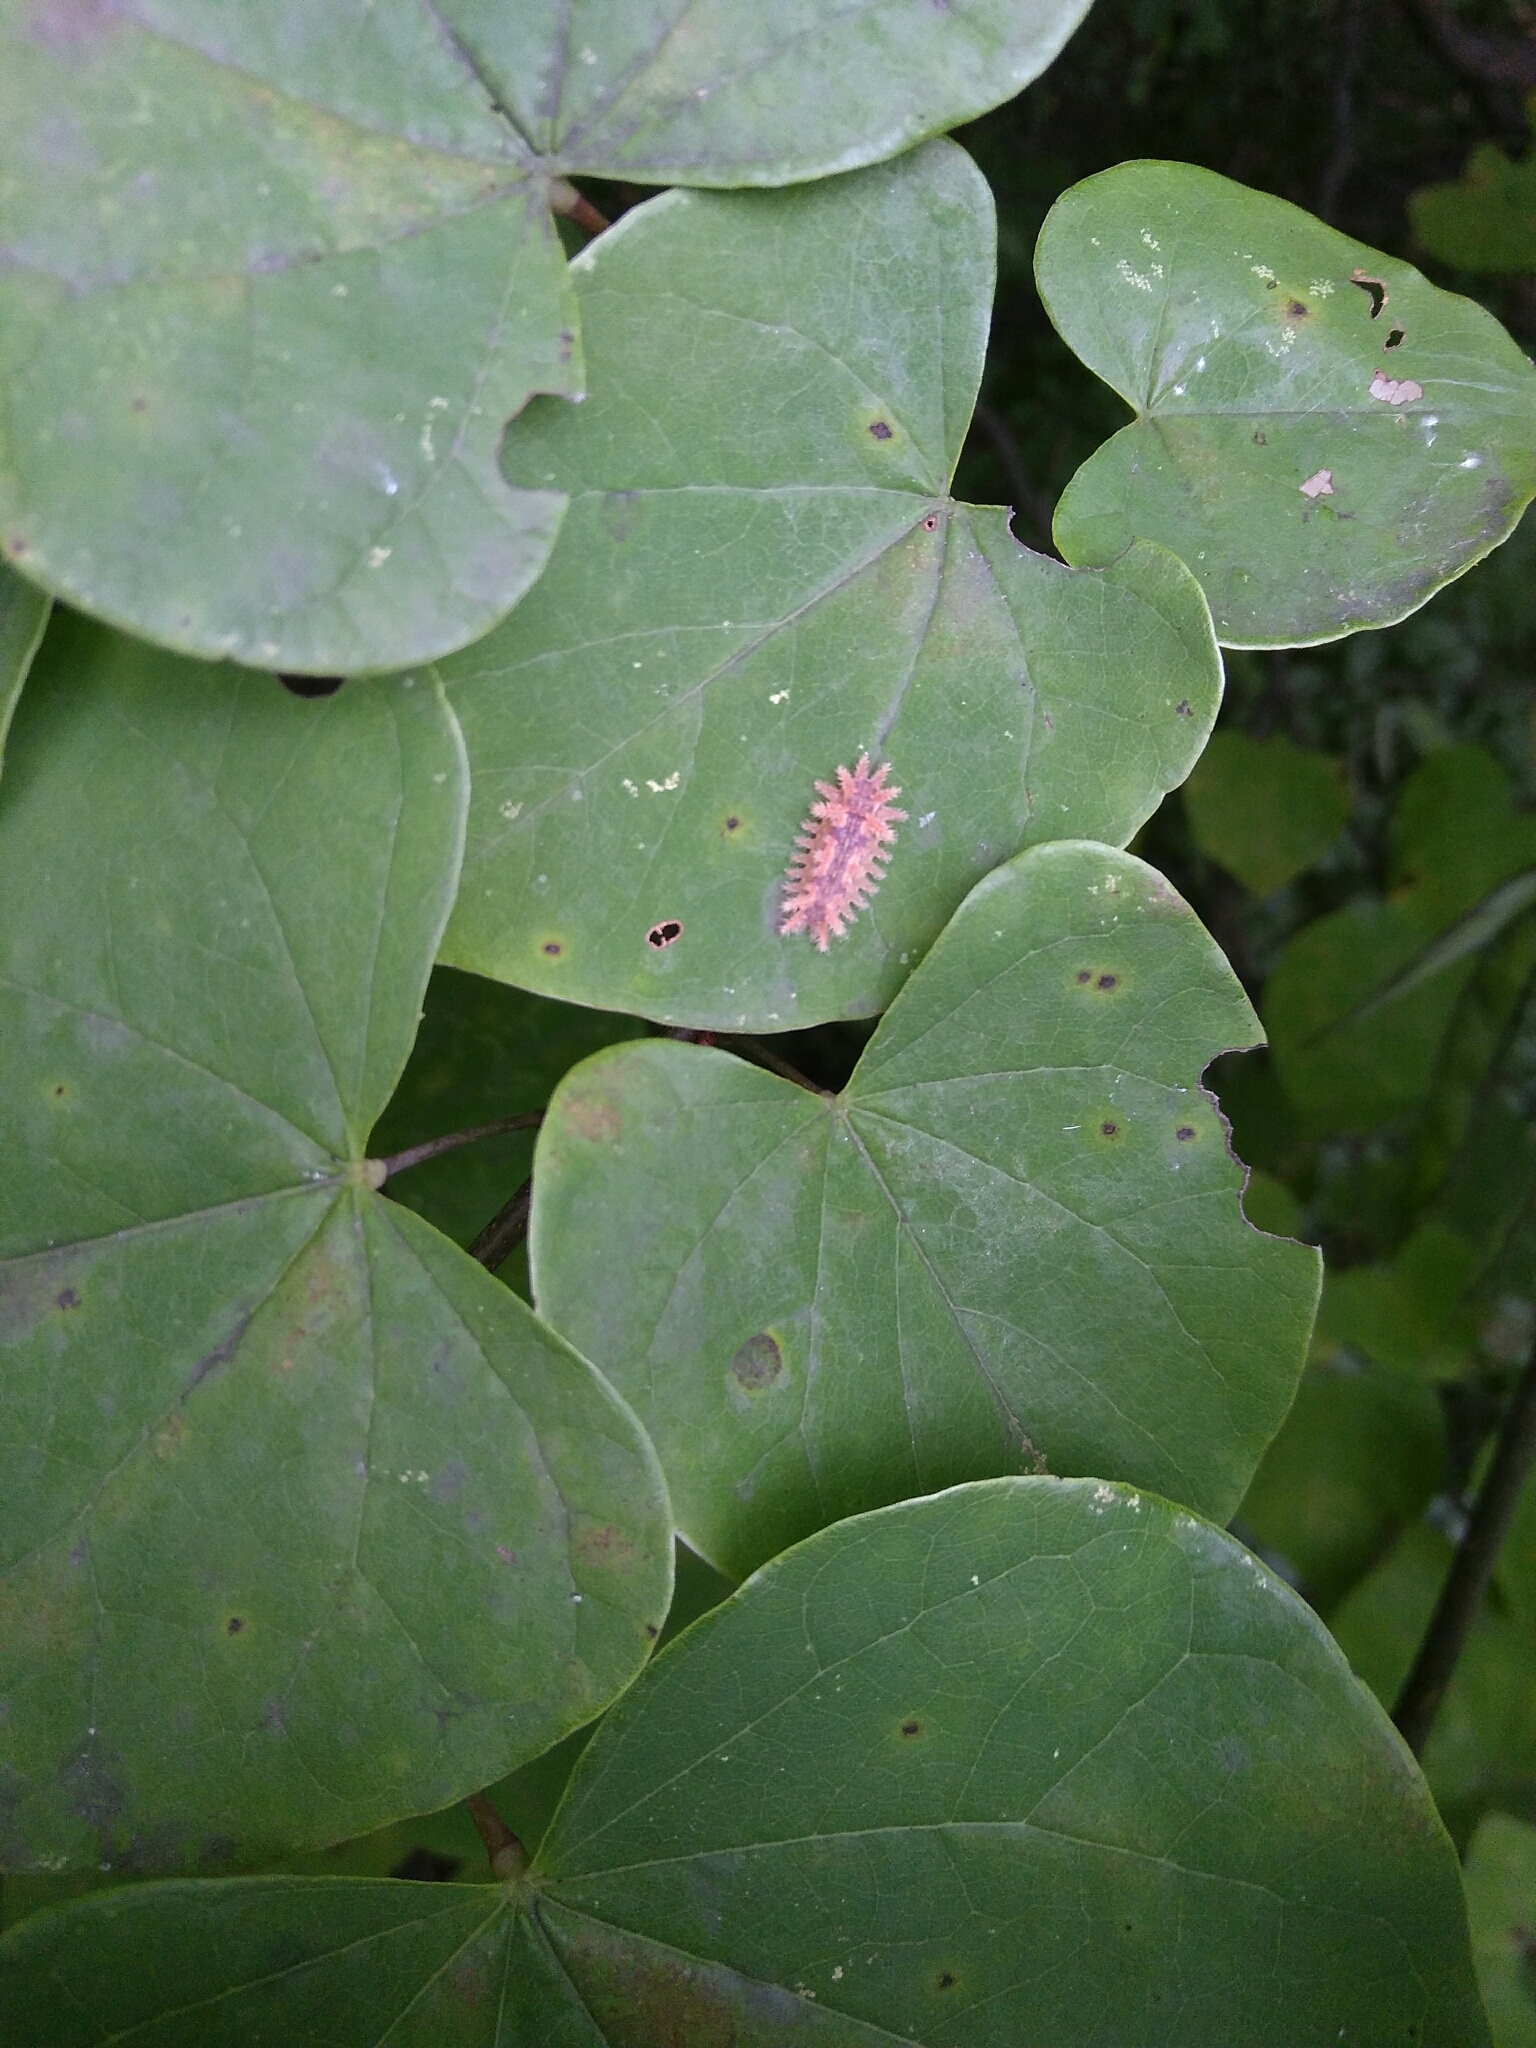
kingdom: Animalia
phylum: Arthropoda
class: Insecta
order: Lepidoptera
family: Limacodidae
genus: Euclea
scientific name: Euclea delphinii
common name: Spiny oak-slug moth
